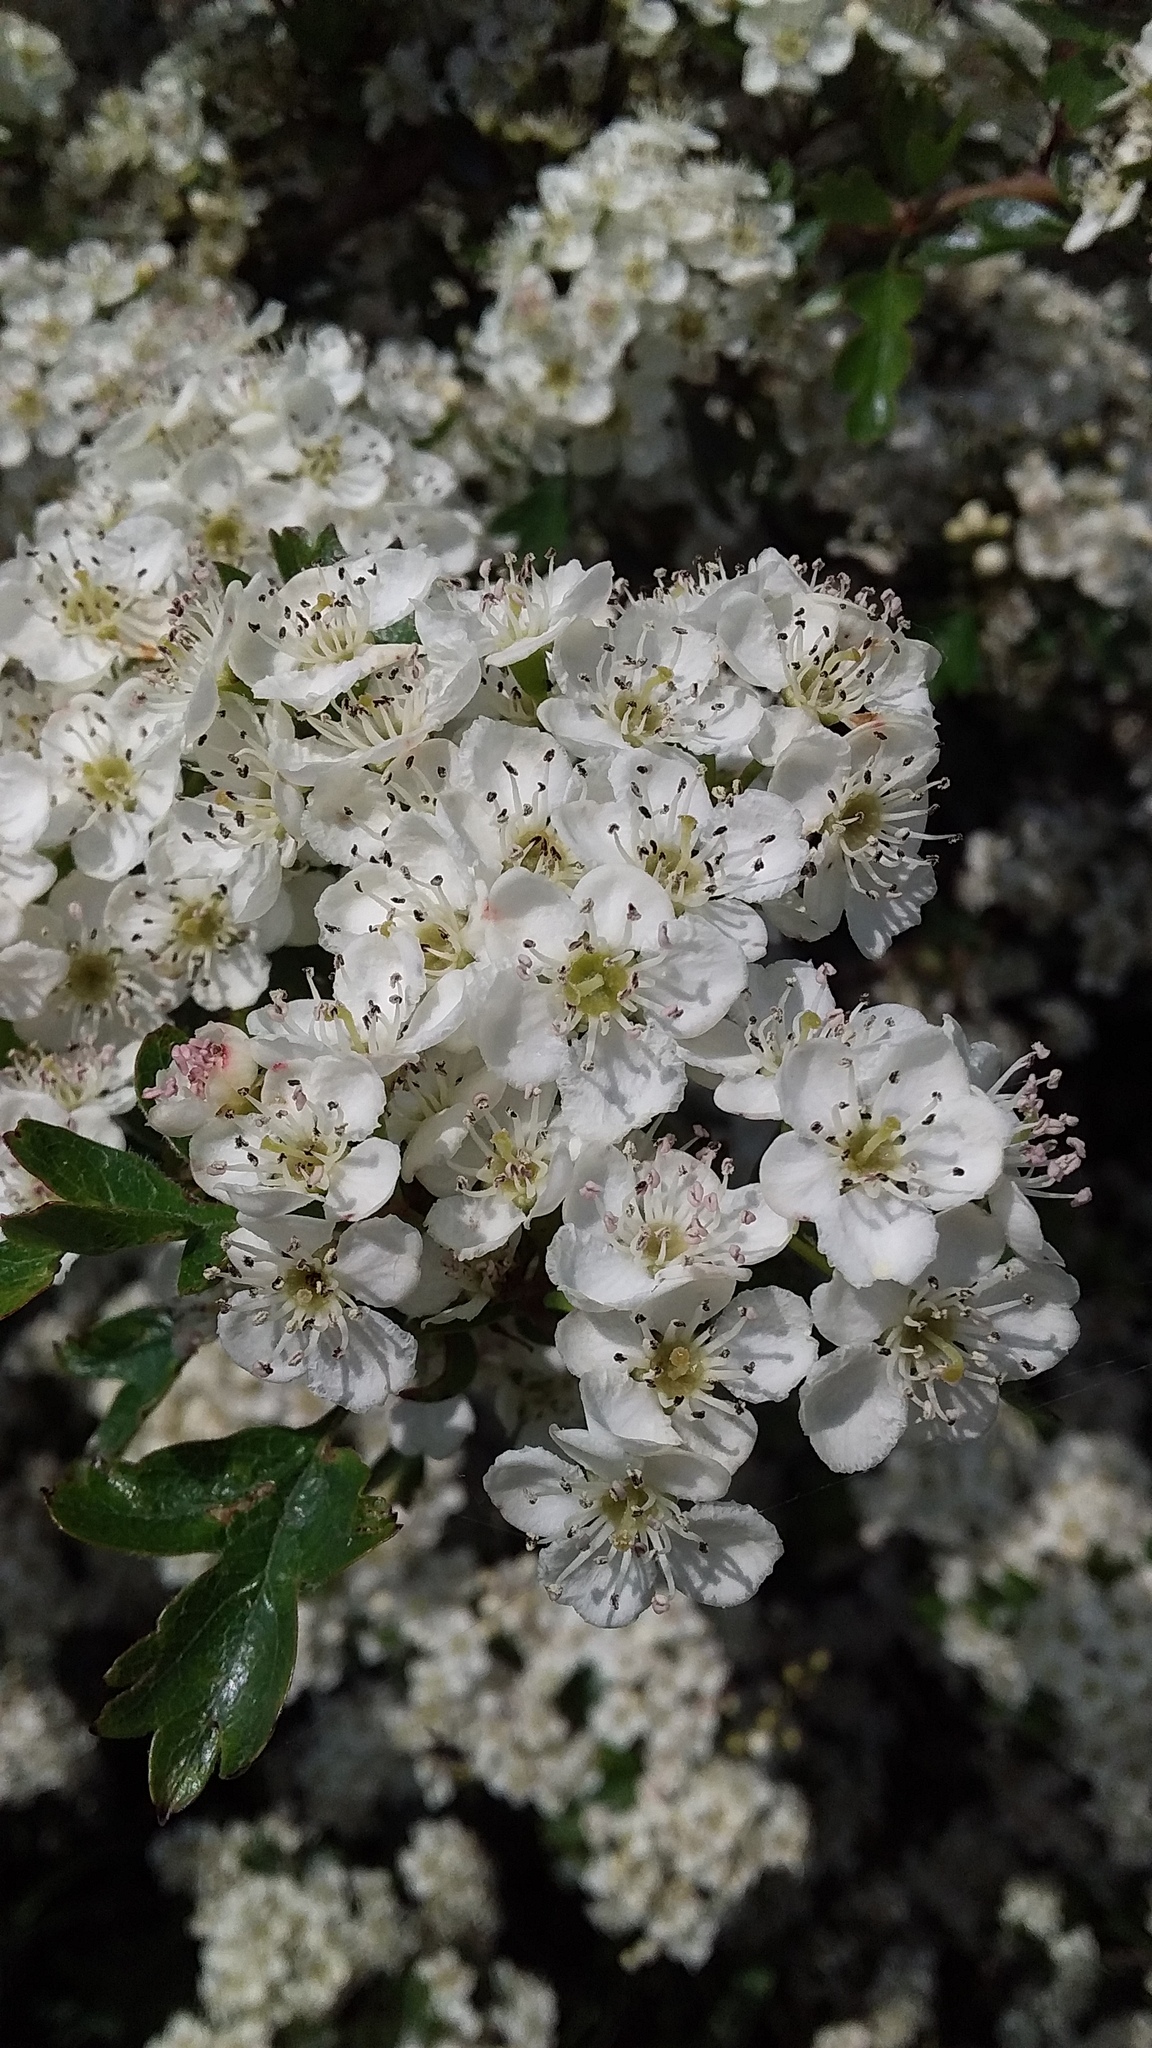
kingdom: Plantae
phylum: Tracheophyta
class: Magnoliopsida
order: Rosales
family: Rosaceae
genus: Crataegus
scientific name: Crataegus monogyna
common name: Hawthorn
